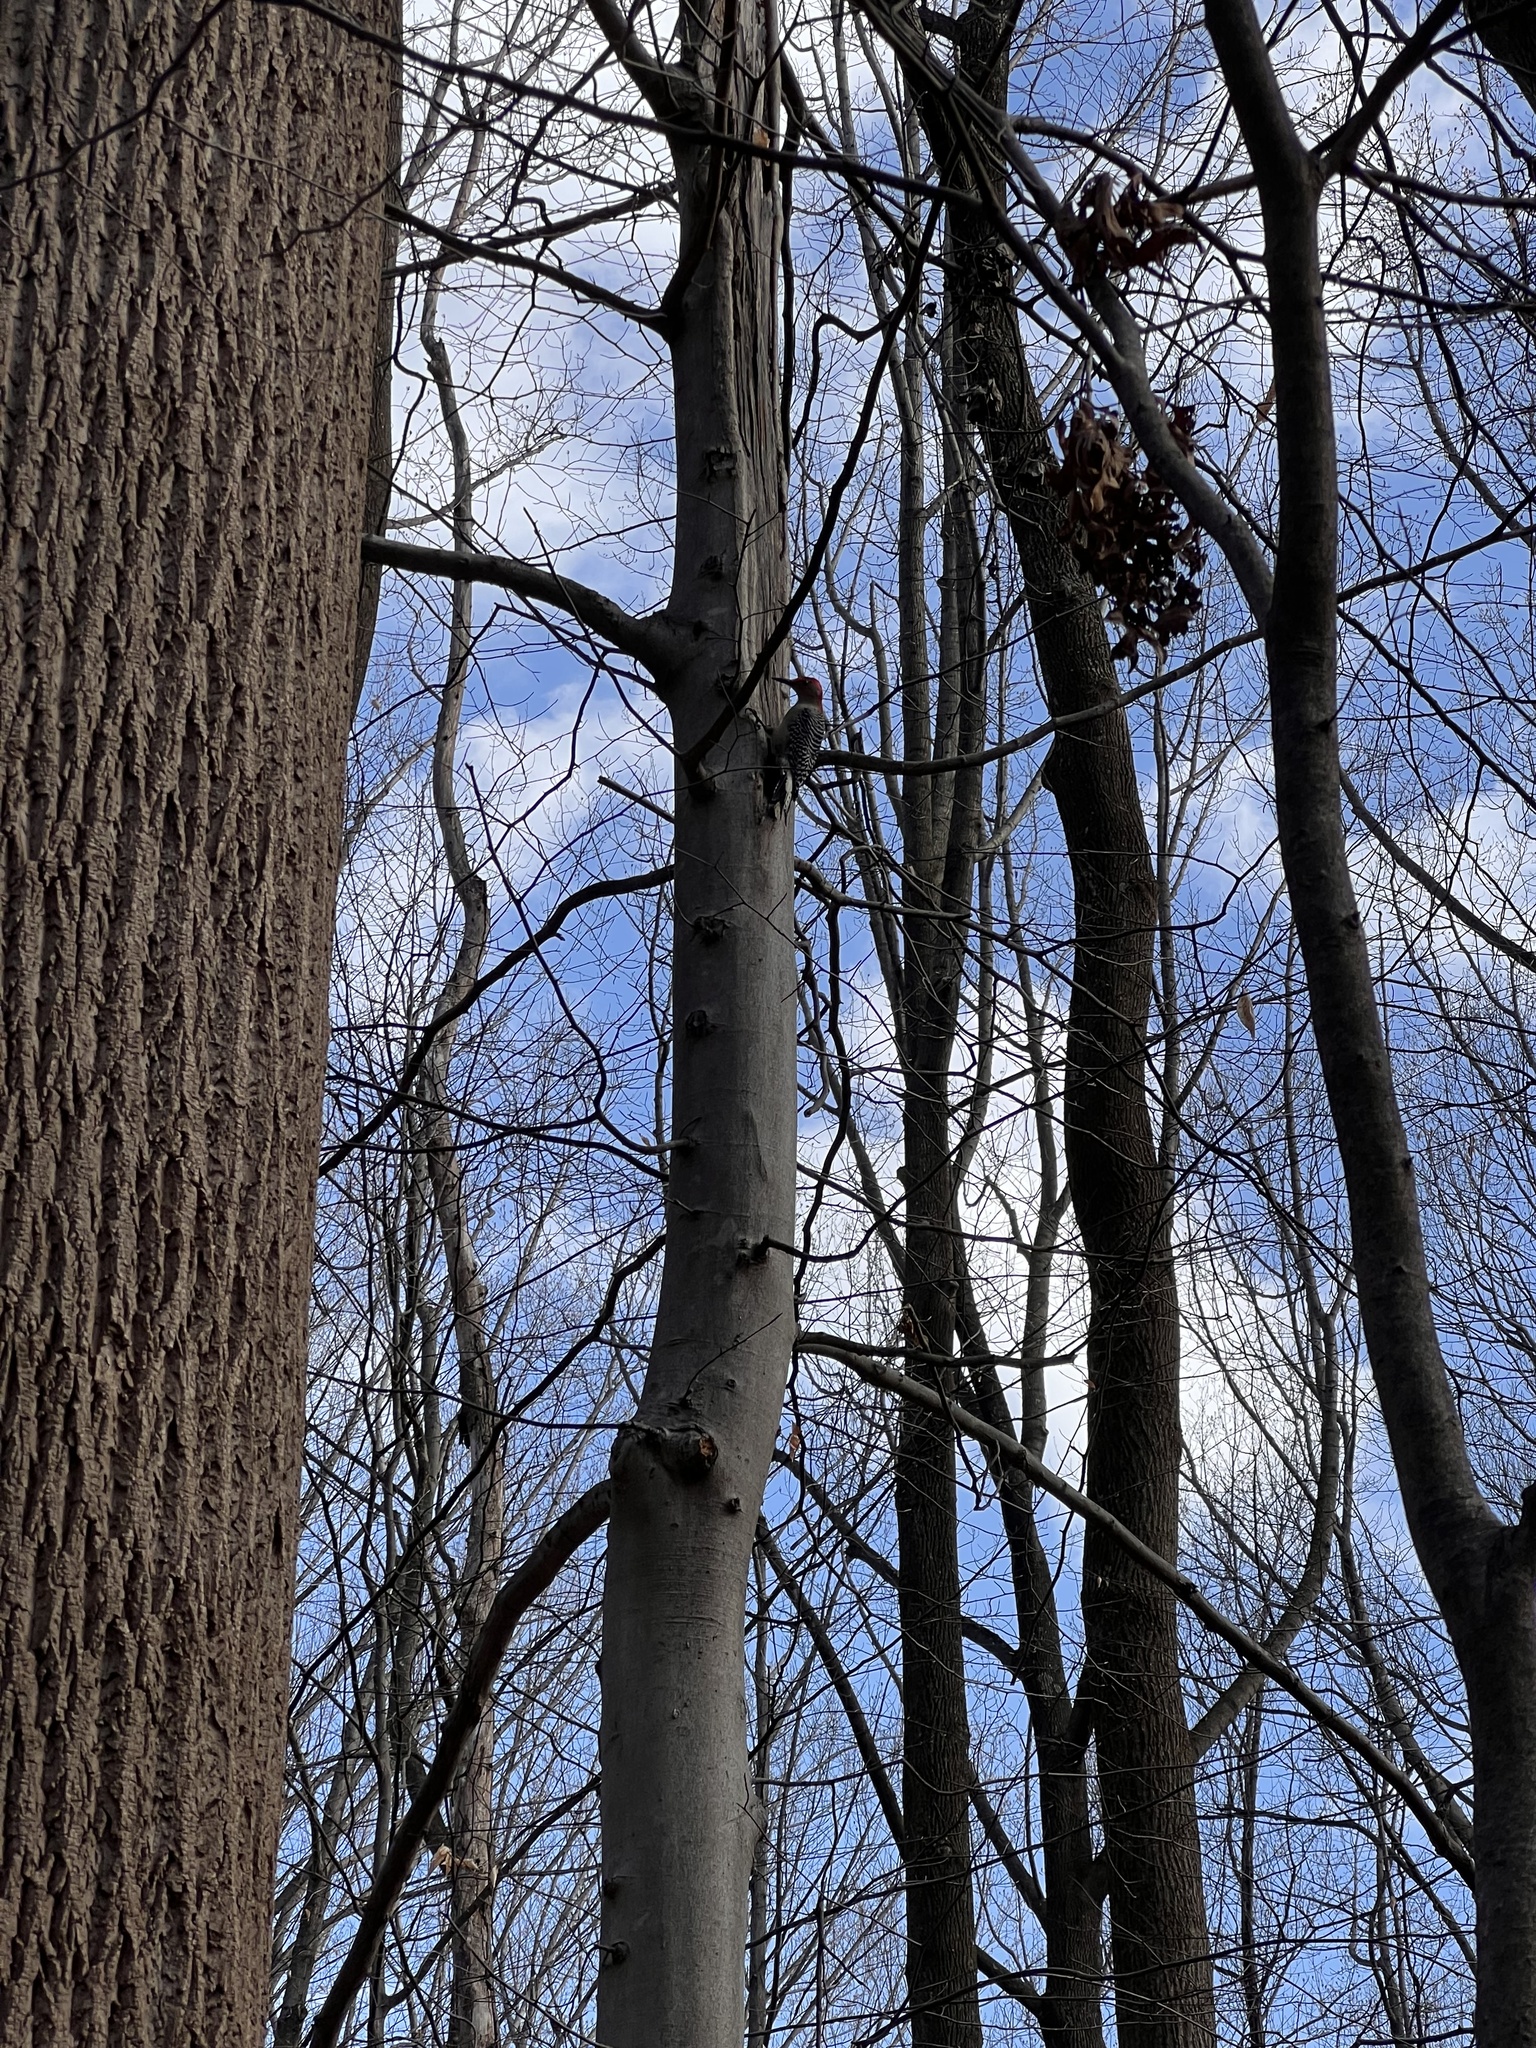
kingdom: Animalia
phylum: Chordata
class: Aves
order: Piciformes
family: Picidae
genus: Melanerpes
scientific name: Melanerpes carolinus
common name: Red-bellied woodpecker
